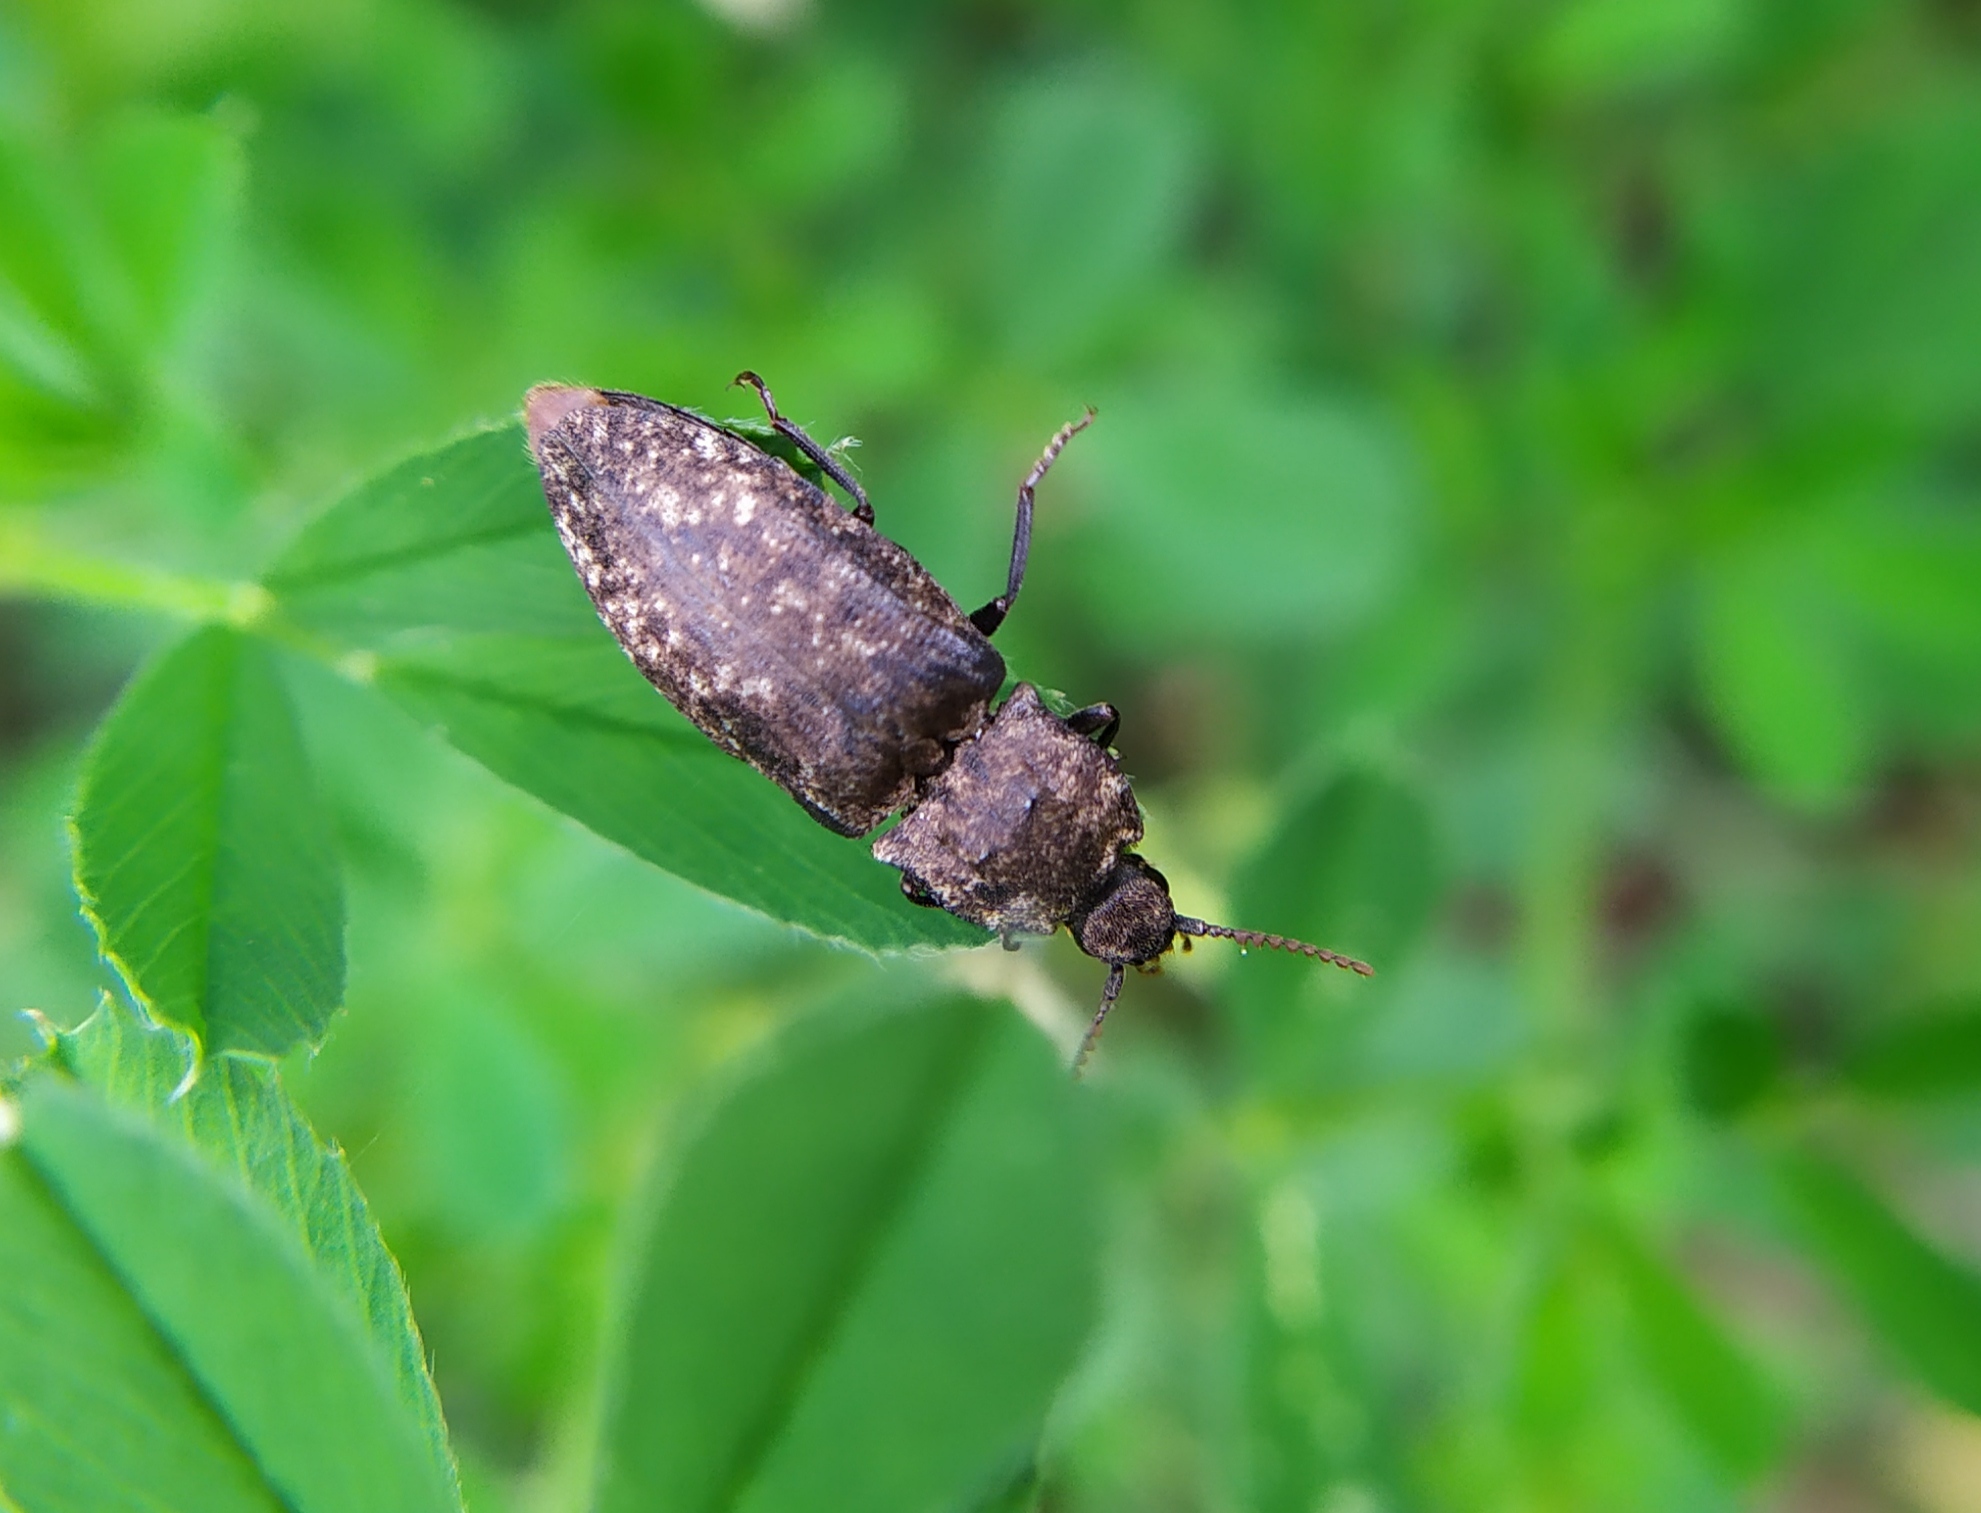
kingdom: Animalia
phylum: Arthropoda
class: Insecta
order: Coleoptera
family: Elateridae
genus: Agrypnus
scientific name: Agrypnus murinus
